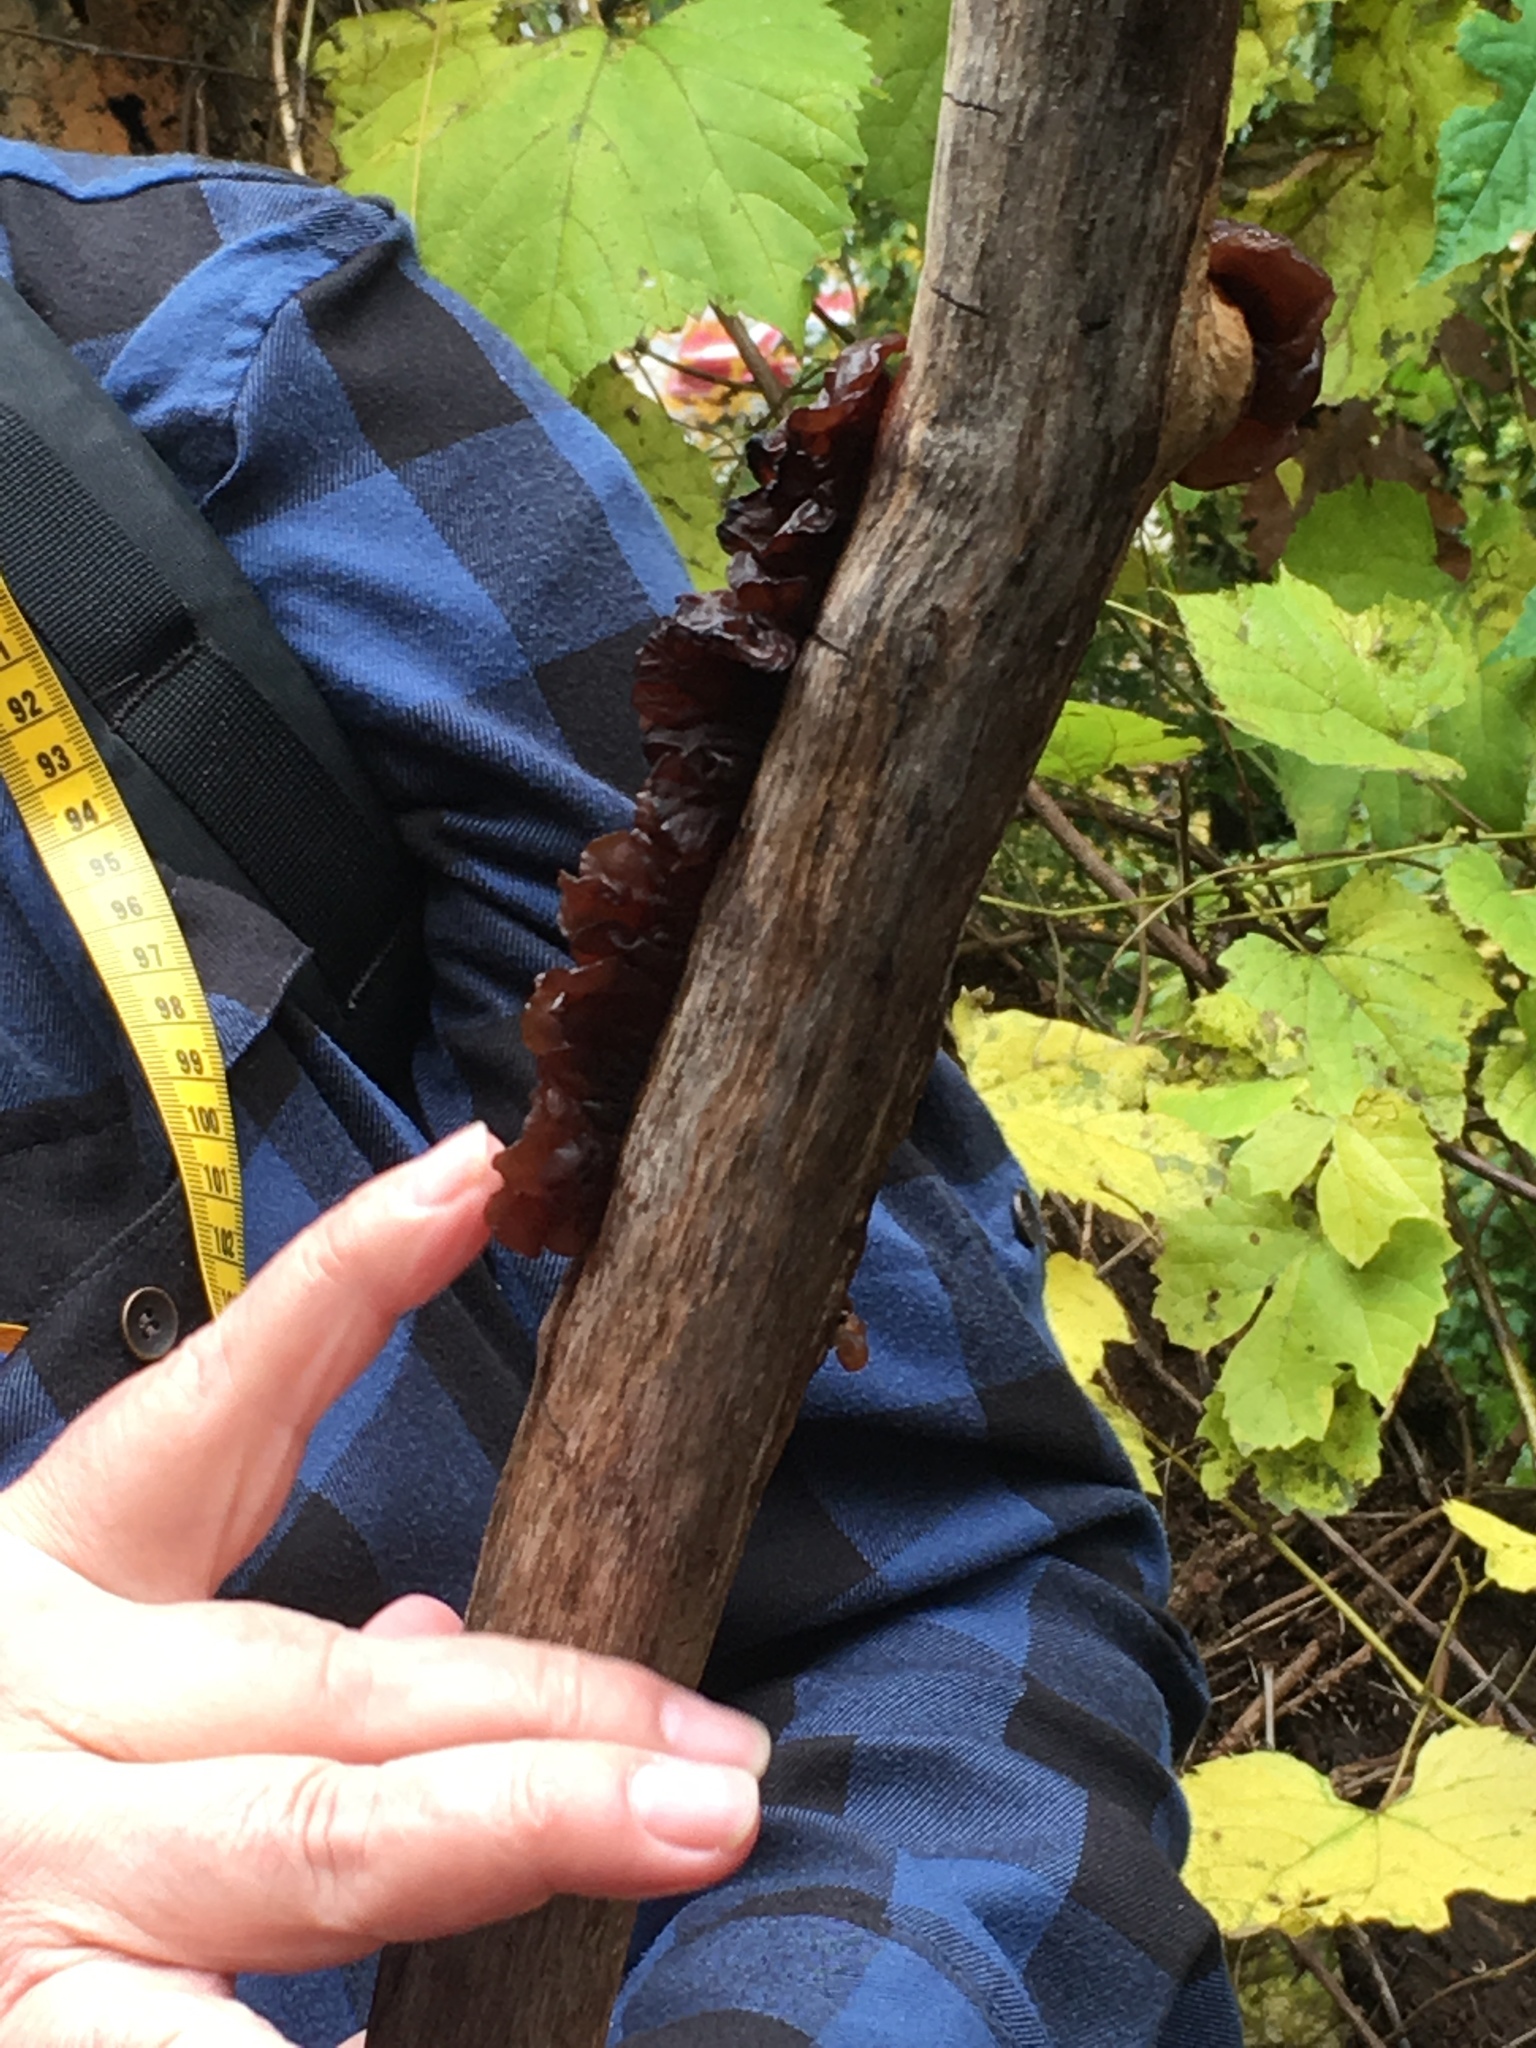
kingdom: Fungi
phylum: Basidiomycota
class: Agaricomycetes
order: Auriculariales
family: Auriculariaceae
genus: Exidia
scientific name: Exidia
